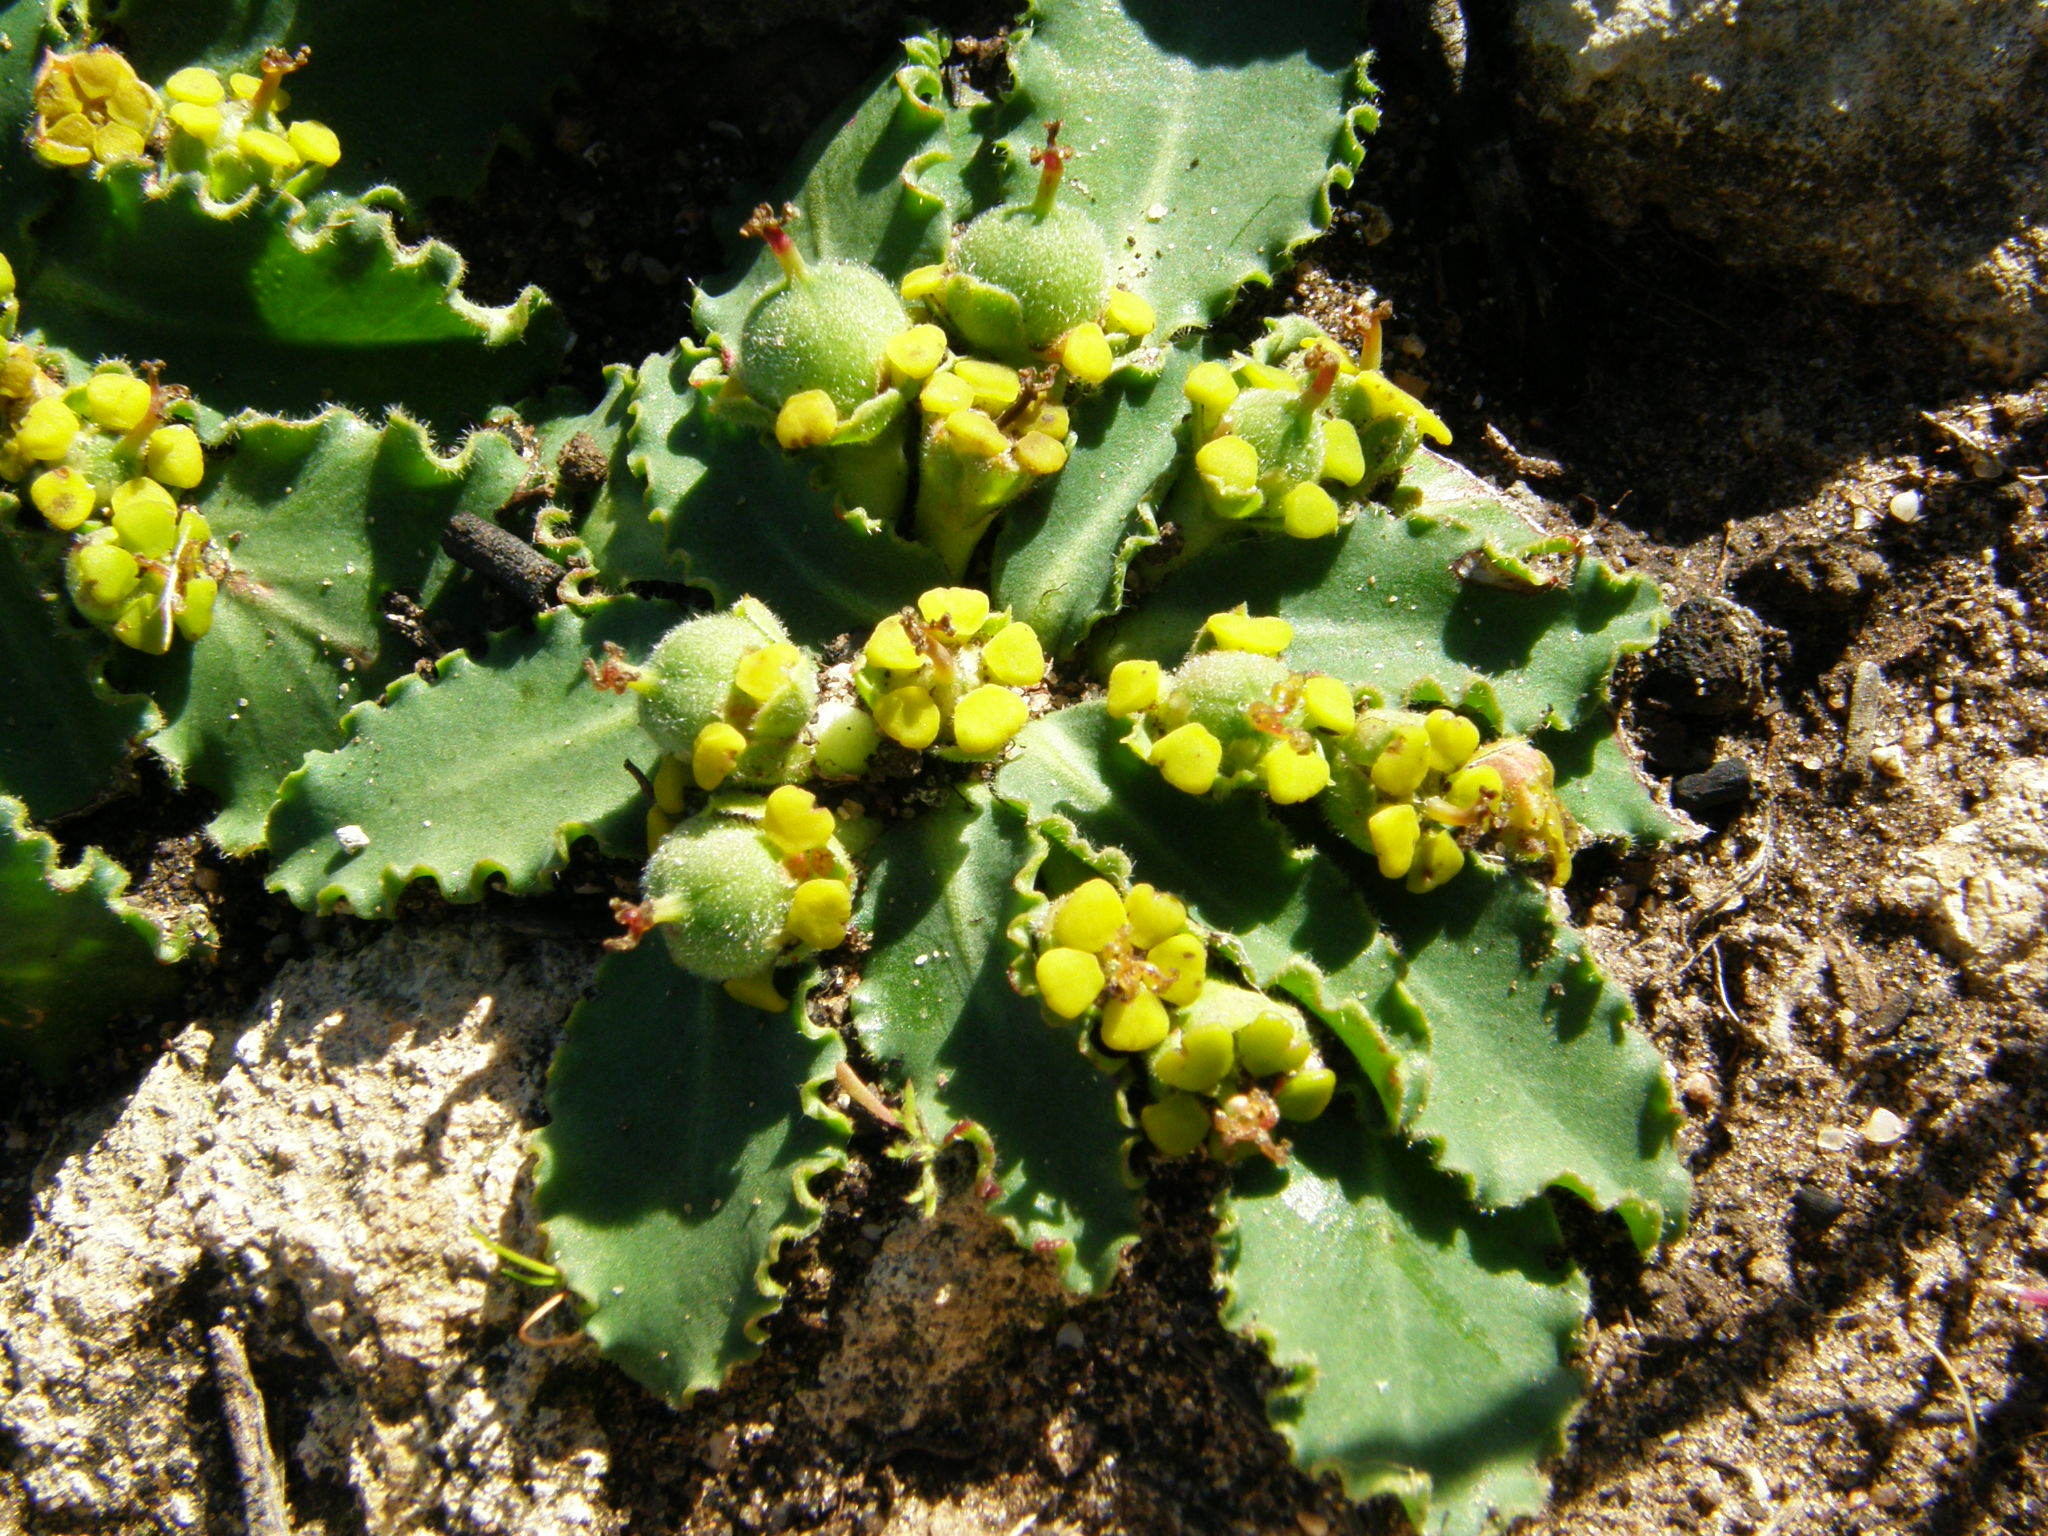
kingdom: Plantae
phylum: Tracheophyta
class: Magnoliopsida
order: Malpighiales
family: Euphorbiaceae
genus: Euphorbia
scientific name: Euphorbia tuberosa
